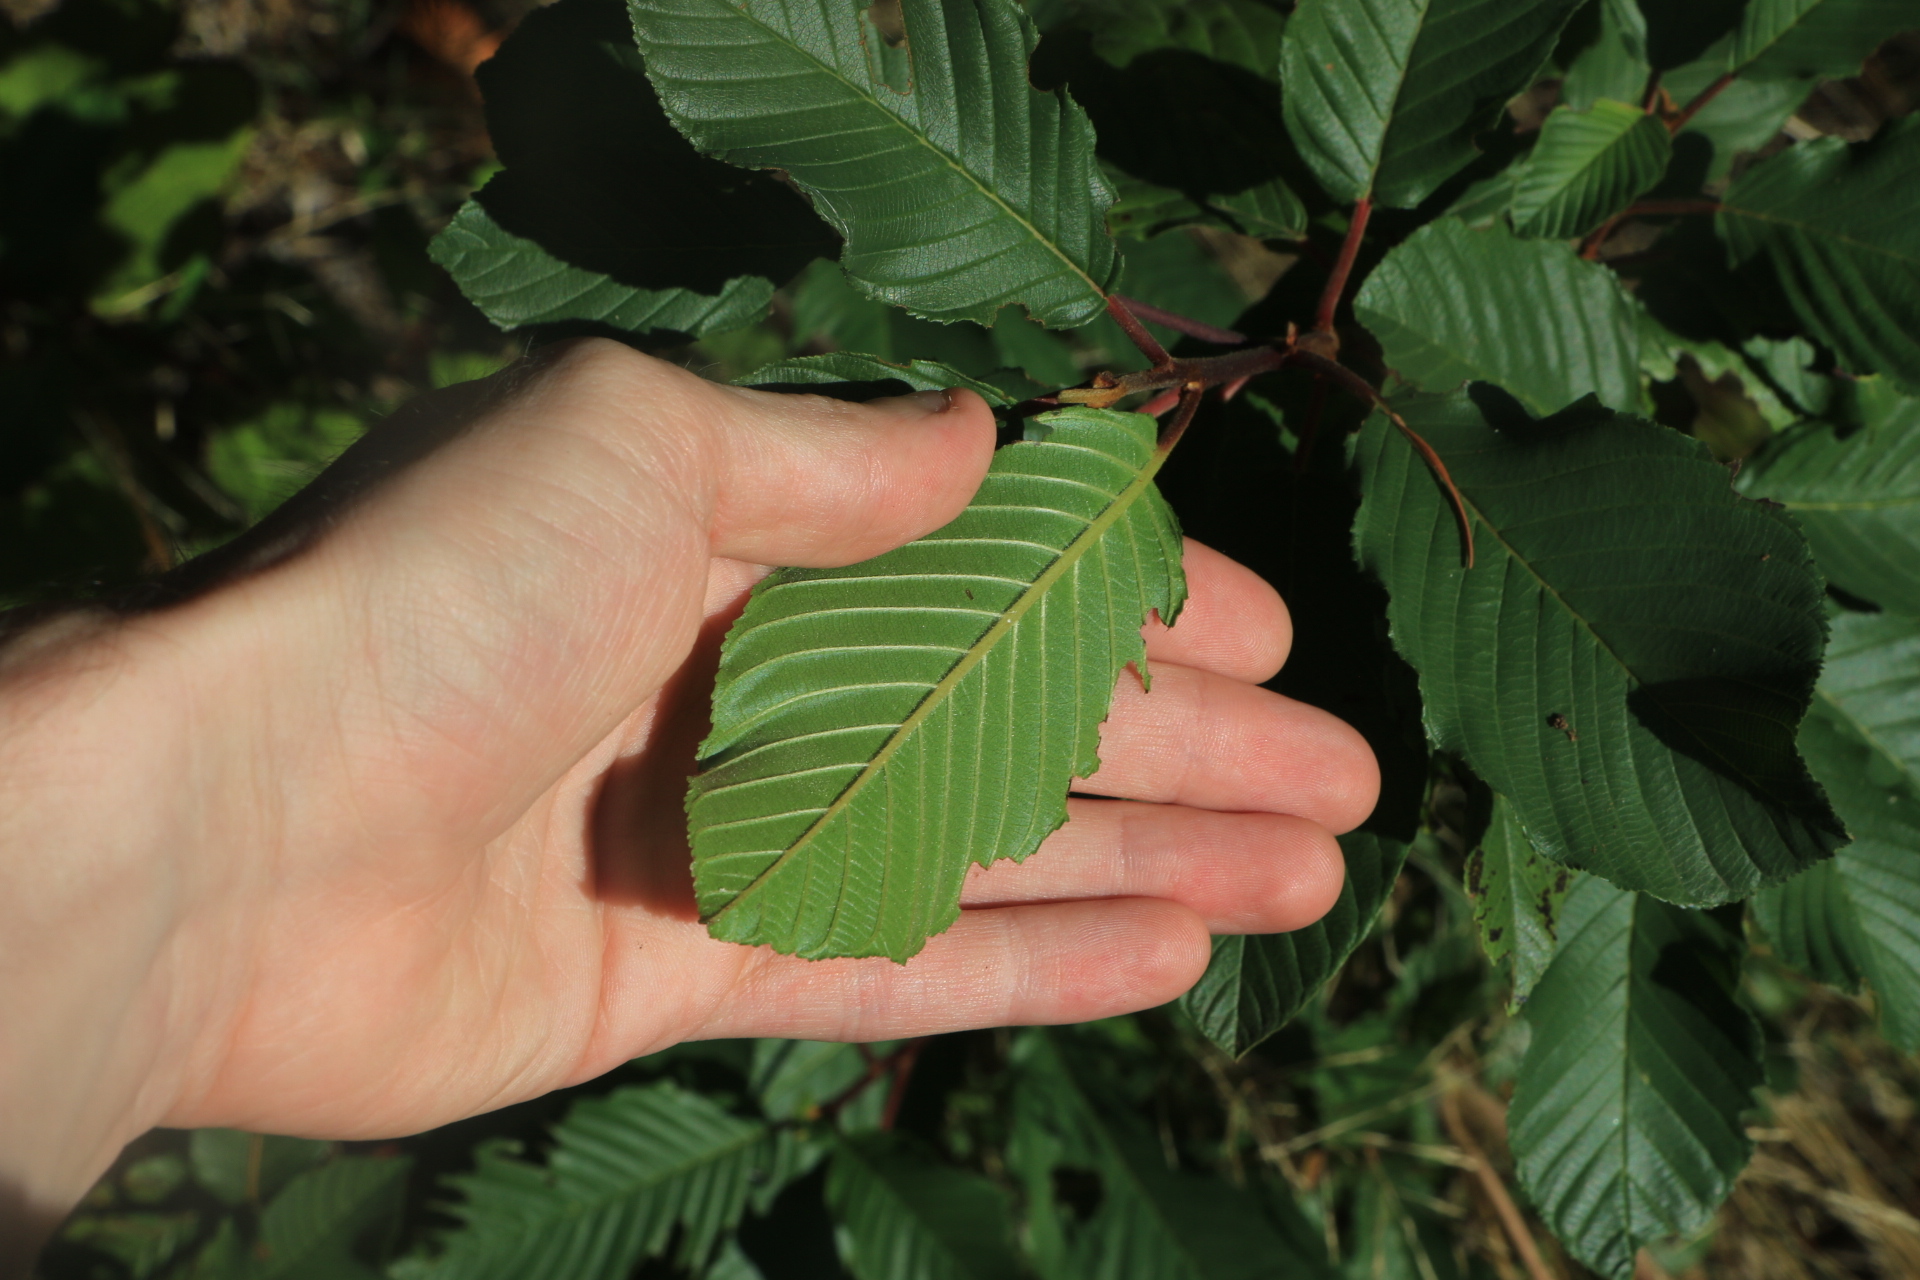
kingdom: Plantae
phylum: Tracheophyta
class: Magnoliopsida
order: Rosales
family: Rhamnaceae
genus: Frangula
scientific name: Frangula purshiana
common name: Cascara buckthorn
